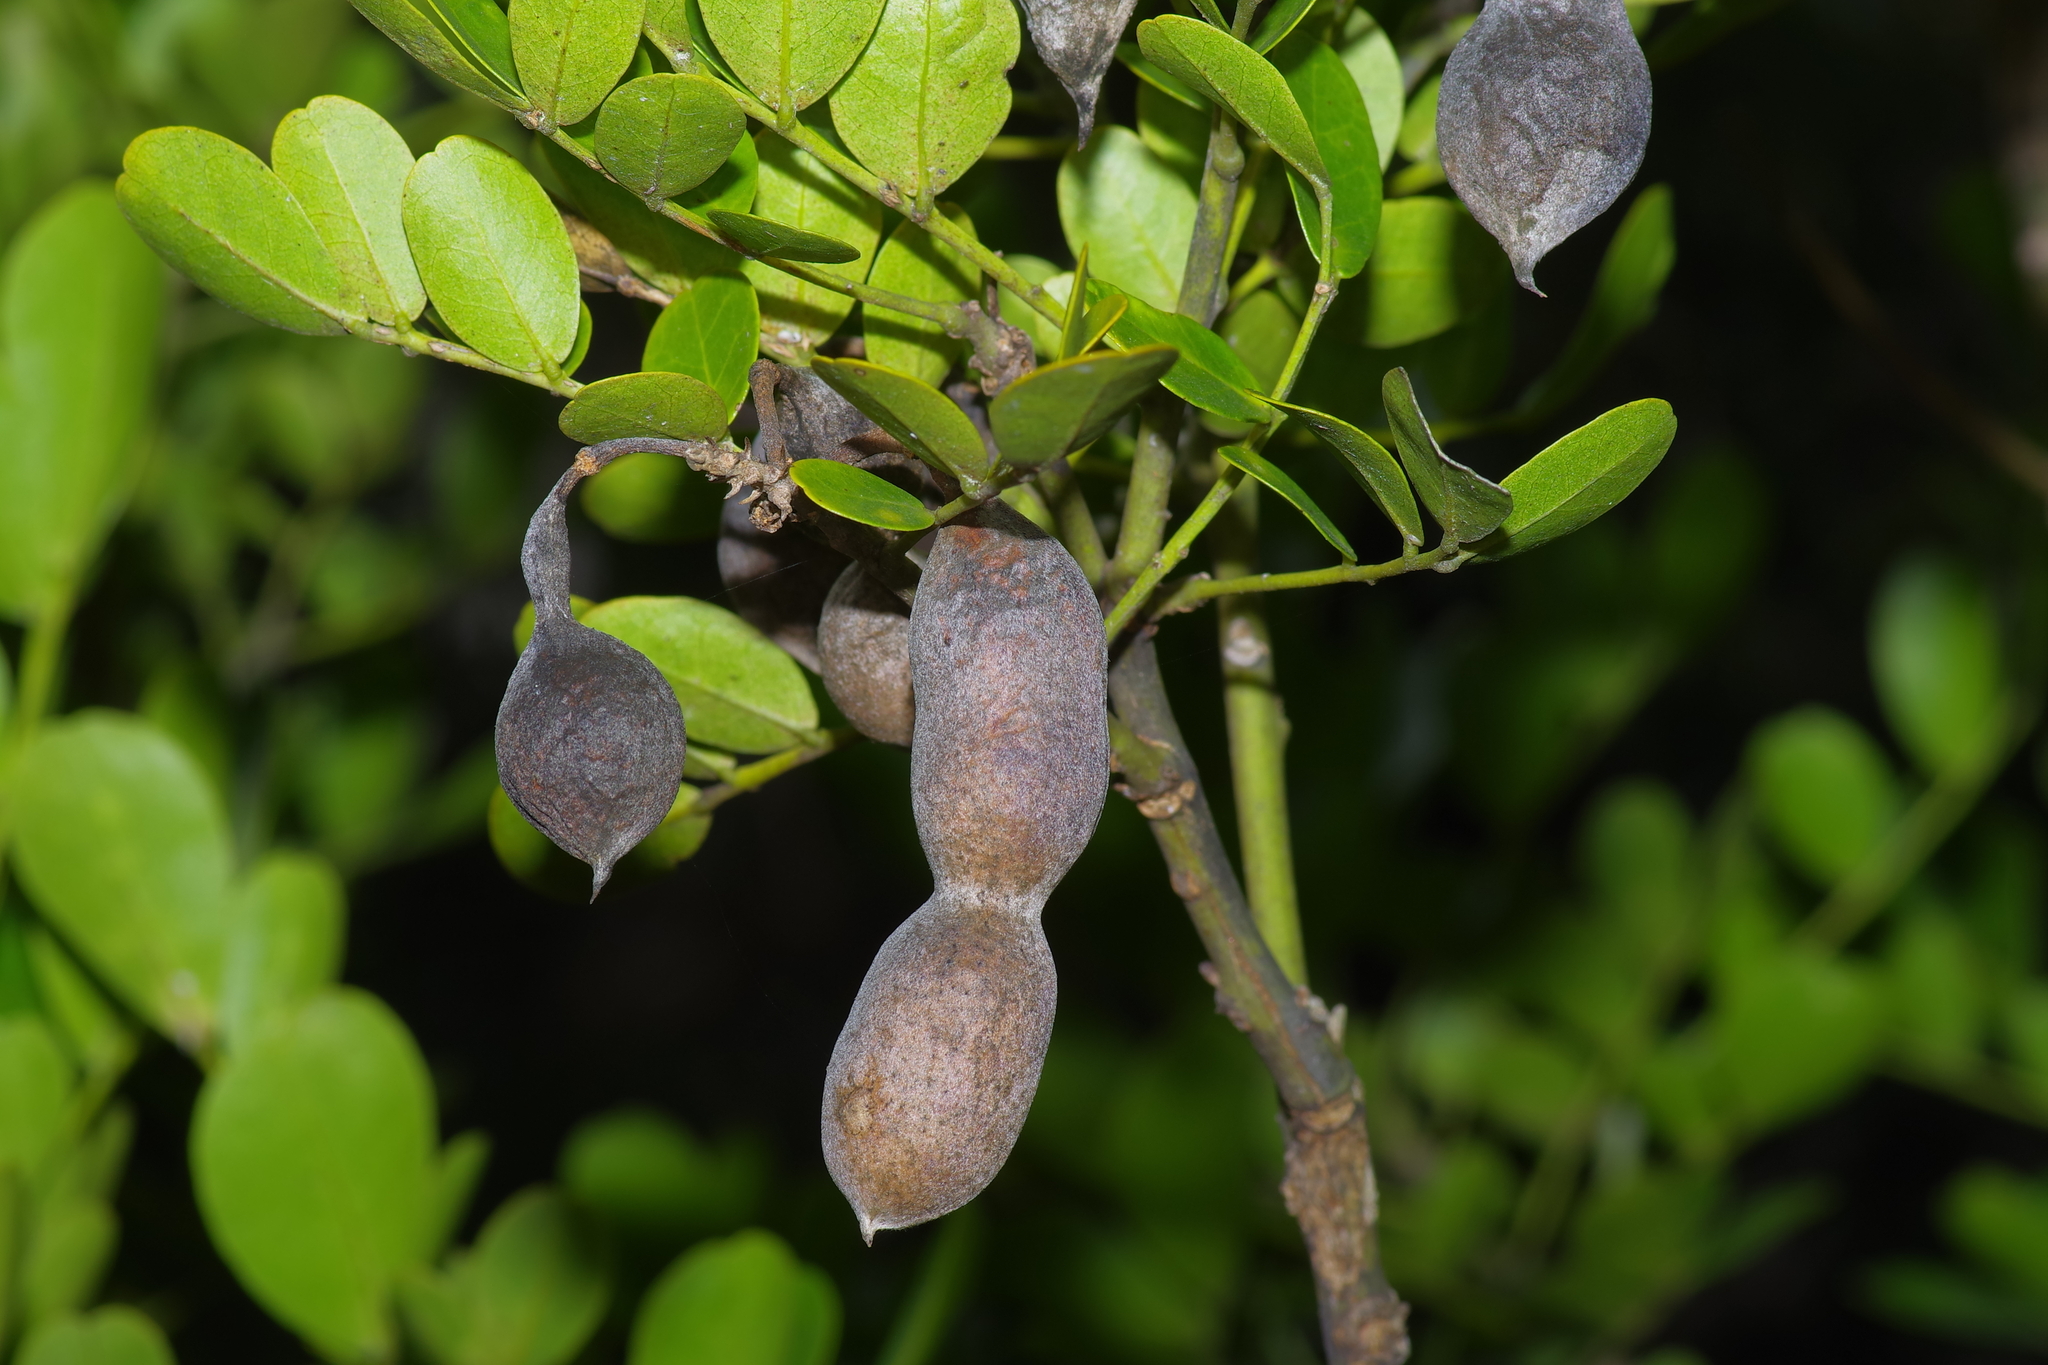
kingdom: Plantae
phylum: Tracheophyta
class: Magnoliopsida
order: Fabales
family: Fabaceae
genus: Dermatophyllum
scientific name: Dermatophyllum secundiflorum
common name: Texas-mountain-laurel
